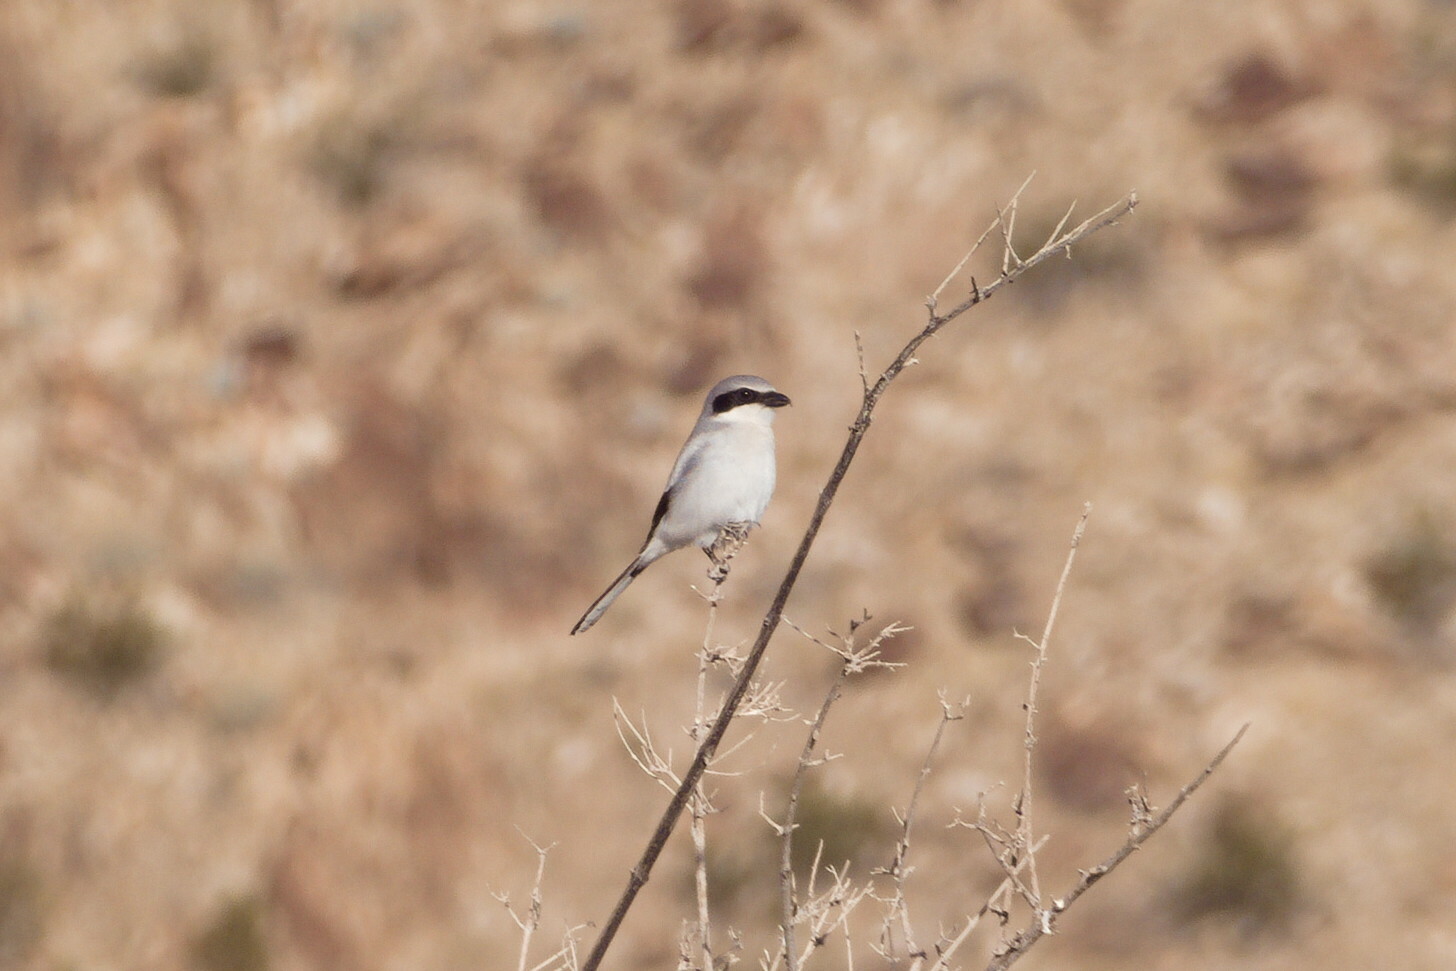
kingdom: Animalia
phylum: Chordata
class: Aves
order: Passeriformes
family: Laniidae
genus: Lanius
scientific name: Lanius ludovicianus
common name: Loggerhead shrike
